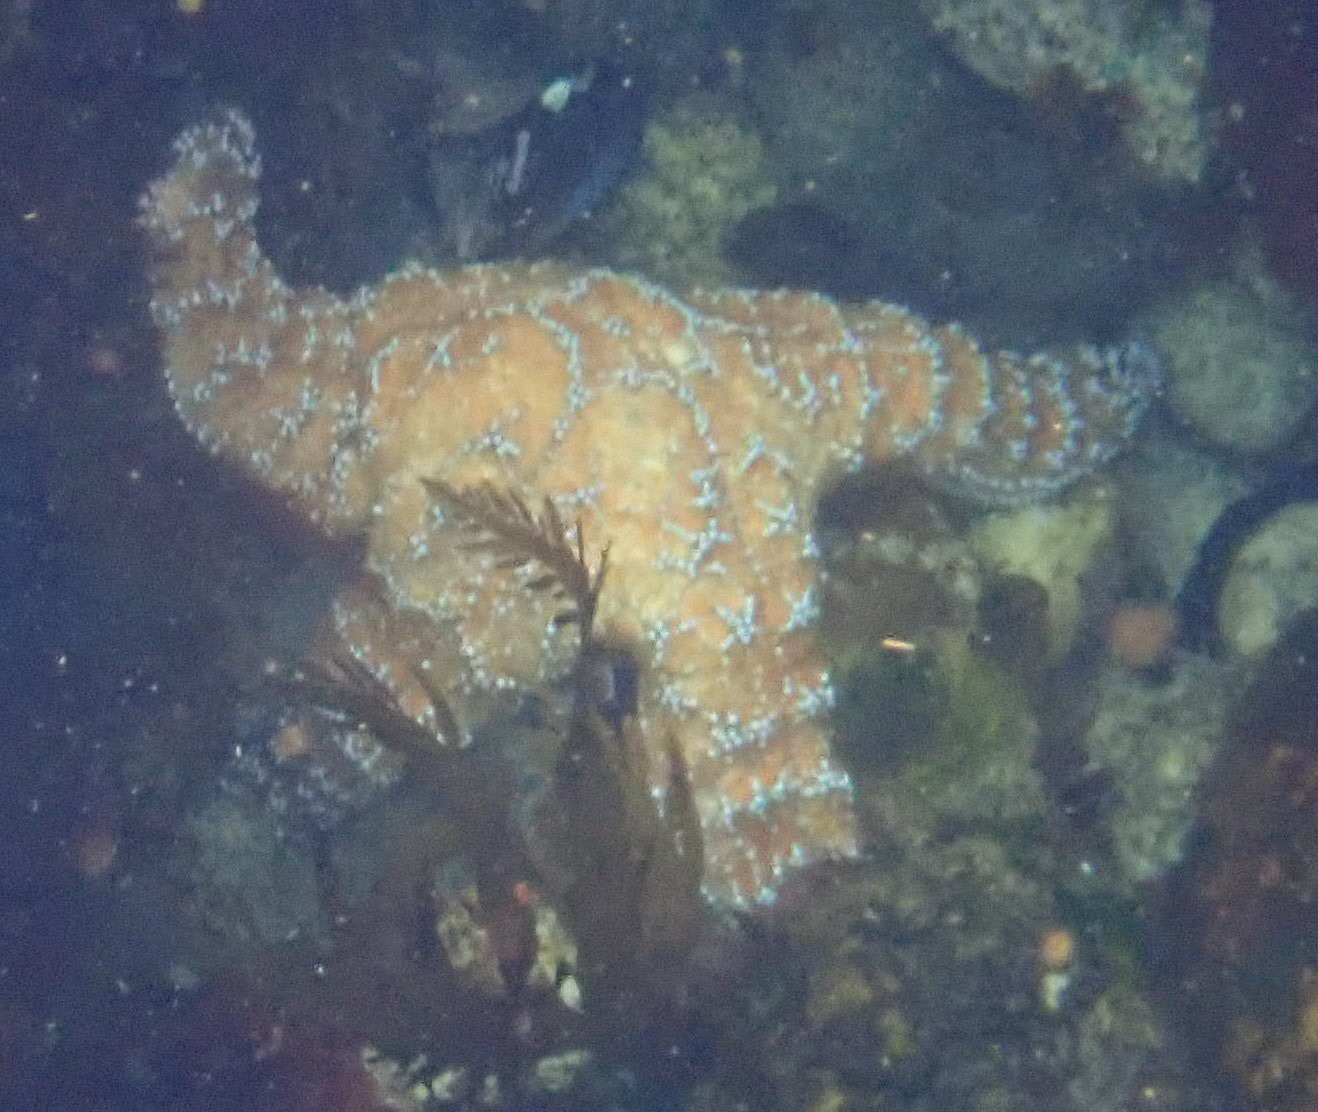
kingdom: Animalia
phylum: Echinodermata
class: Asteroidea
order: Forcipulatida
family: Asteriidae
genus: Pisaster
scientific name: Pisaster ochraceus
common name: Ochre stars
